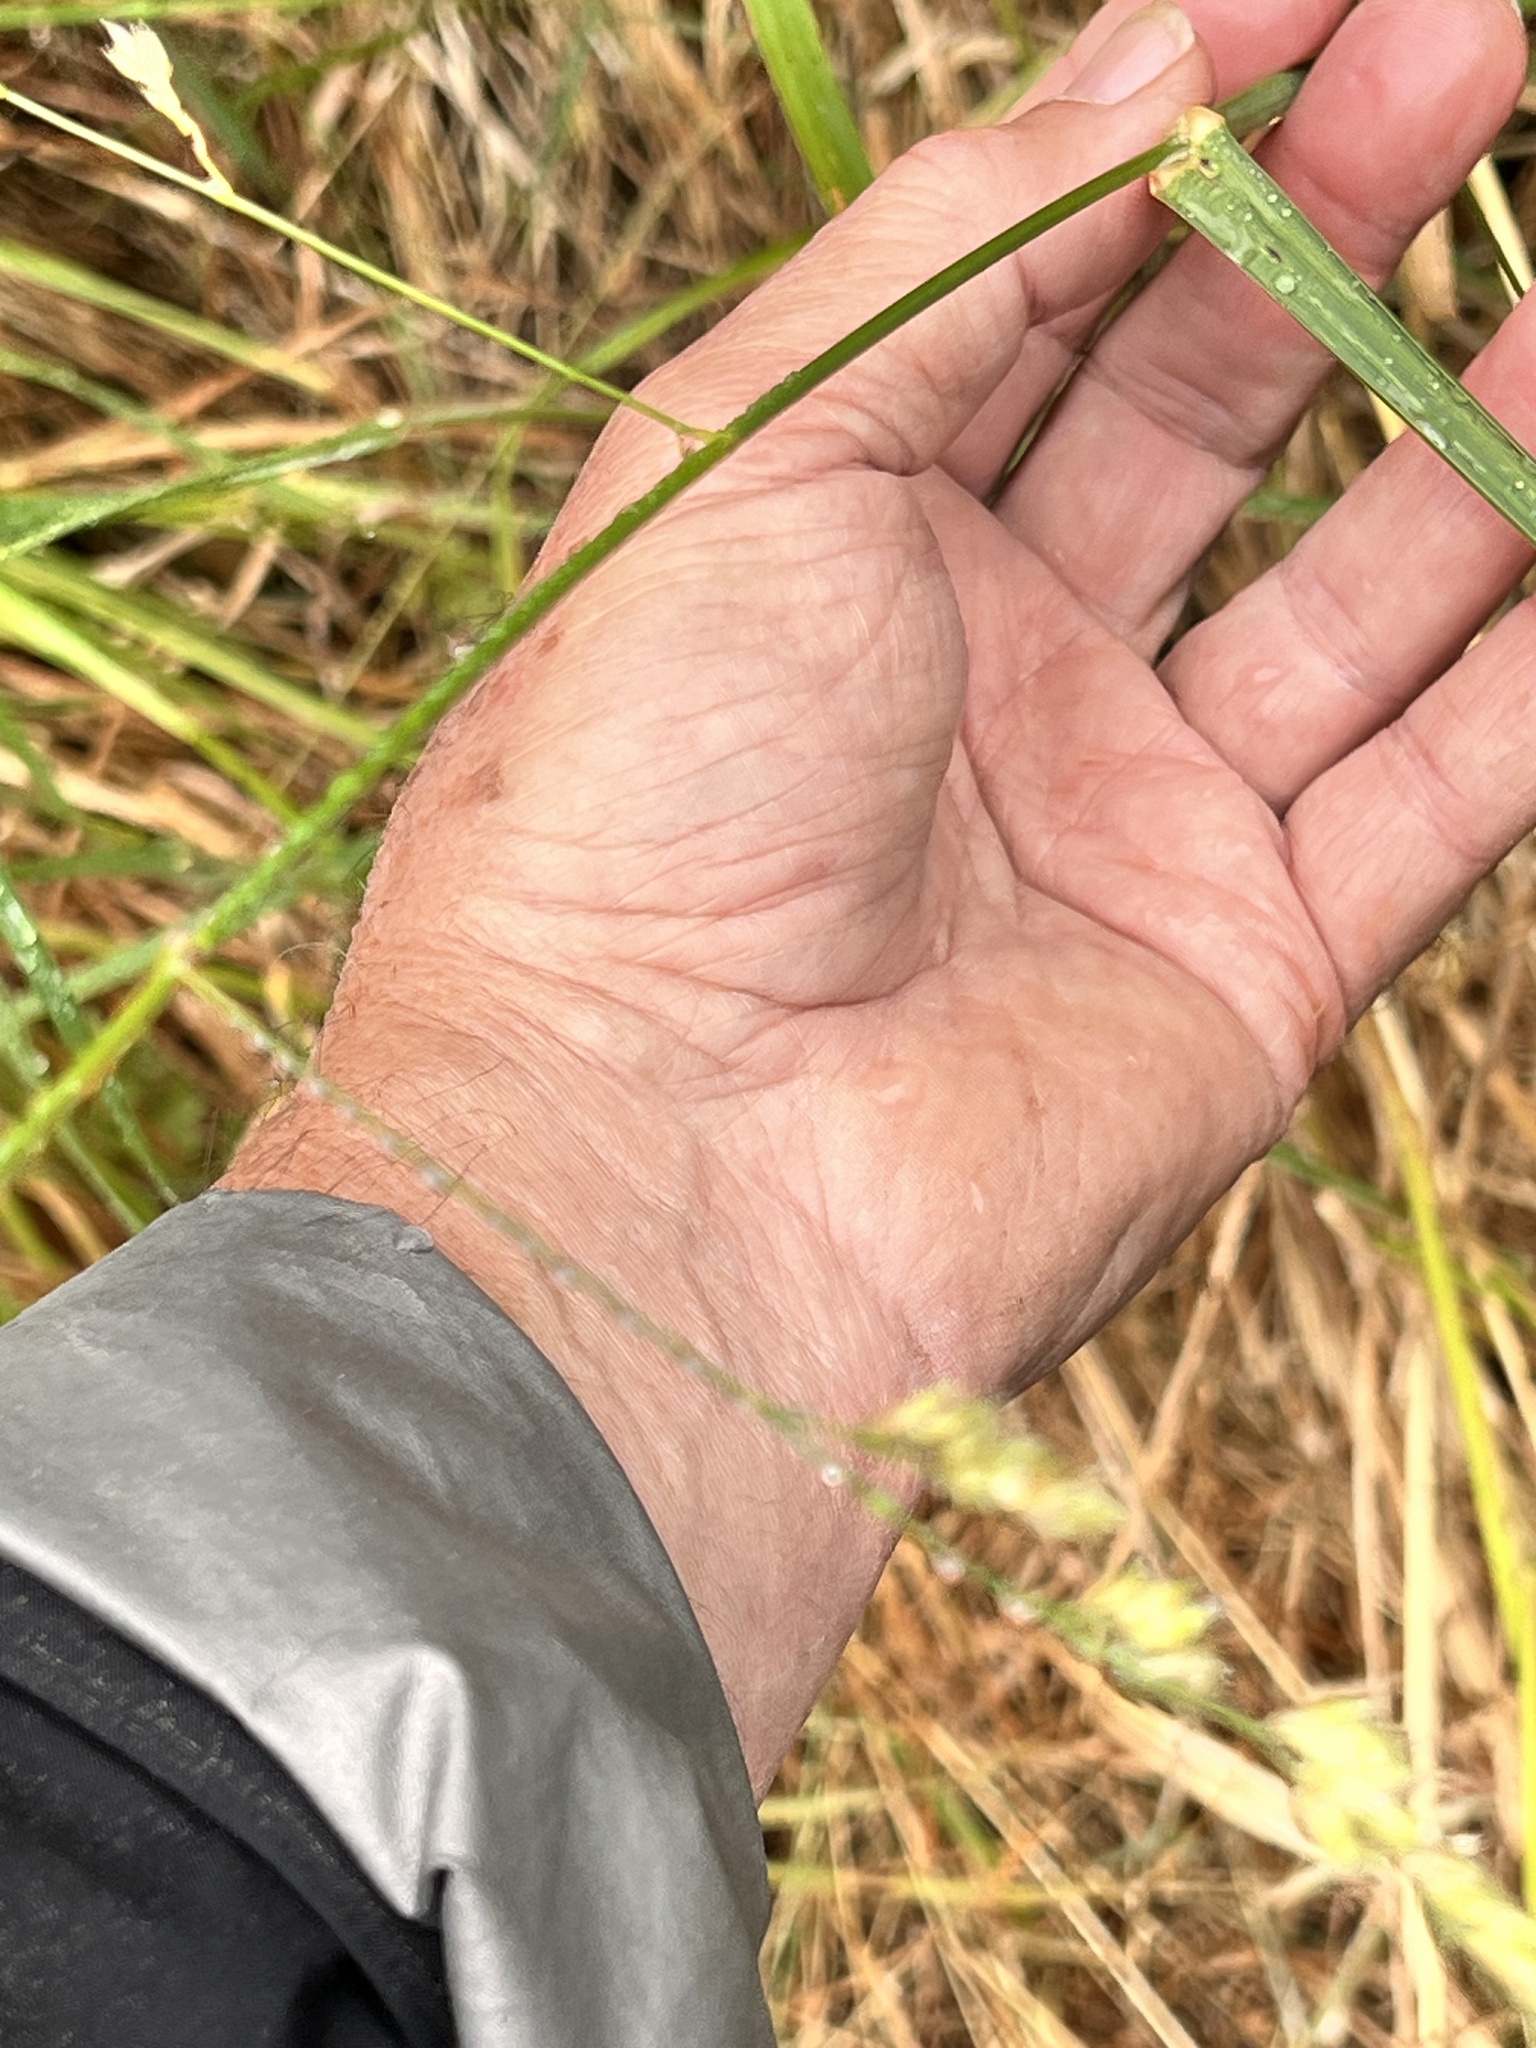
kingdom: Plantae
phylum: Tracheophyta
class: Liliopsida
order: Poales
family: Poaceae
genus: Dactylis
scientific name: Dactylis glomerata
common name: Orchardgrass
